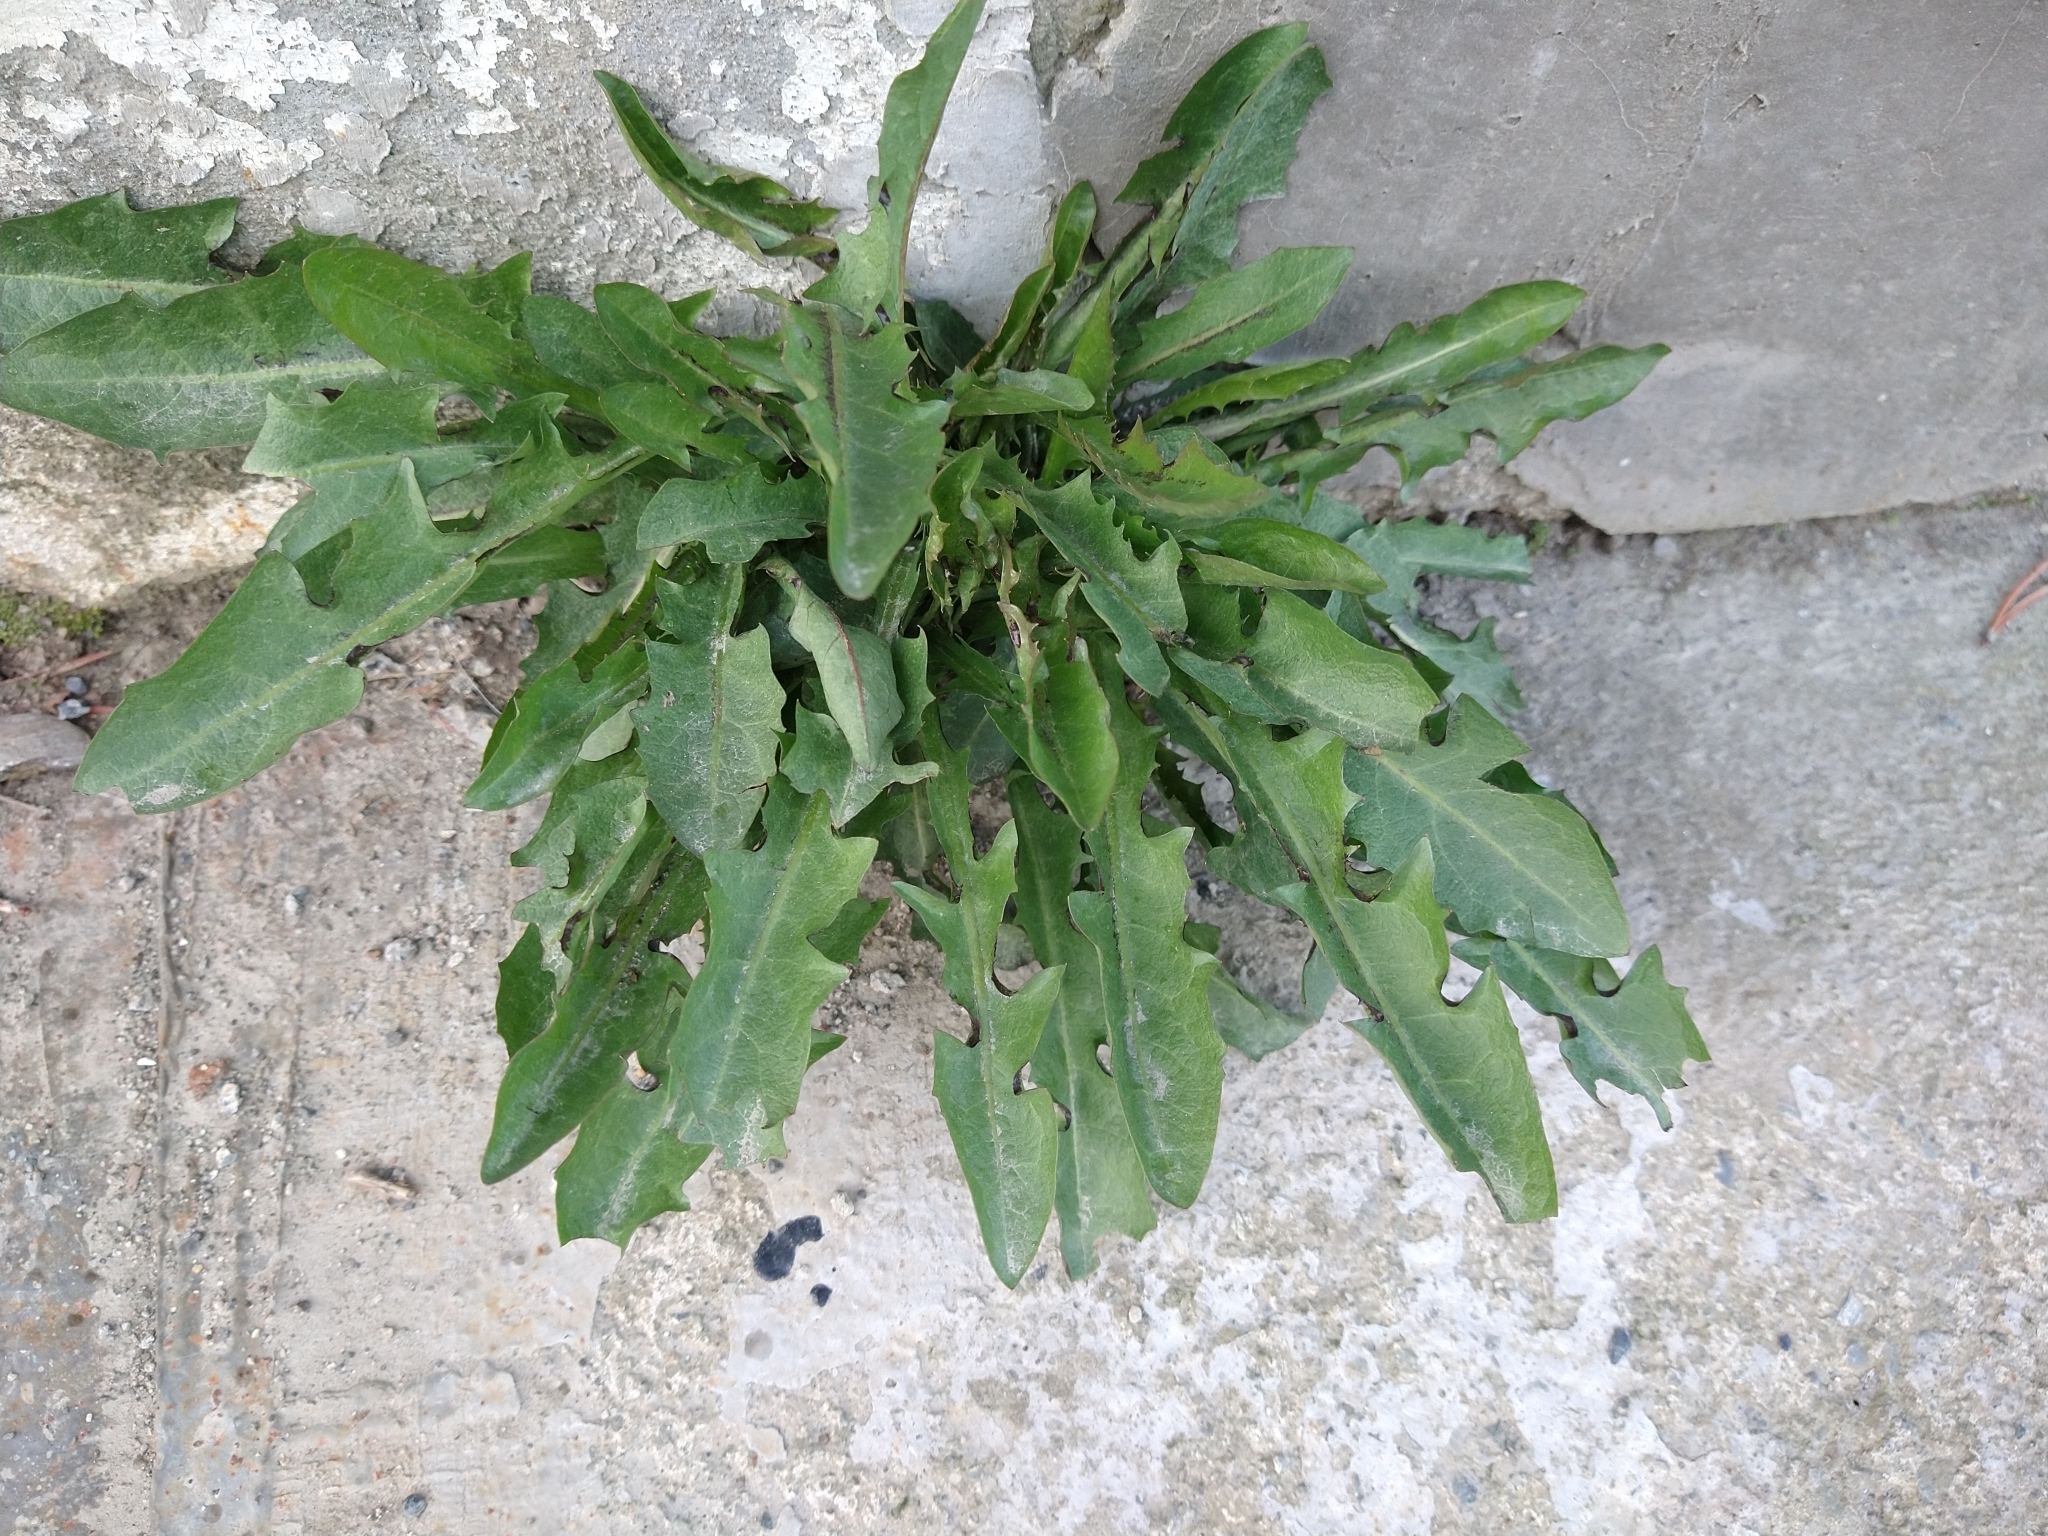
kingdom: Plantae
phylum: Tracheophyta
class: Magnoliopsida
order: Asterales
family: Asteraceae
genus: Taraxacum
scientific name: Taraxacum officinale
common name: Common dandelion
